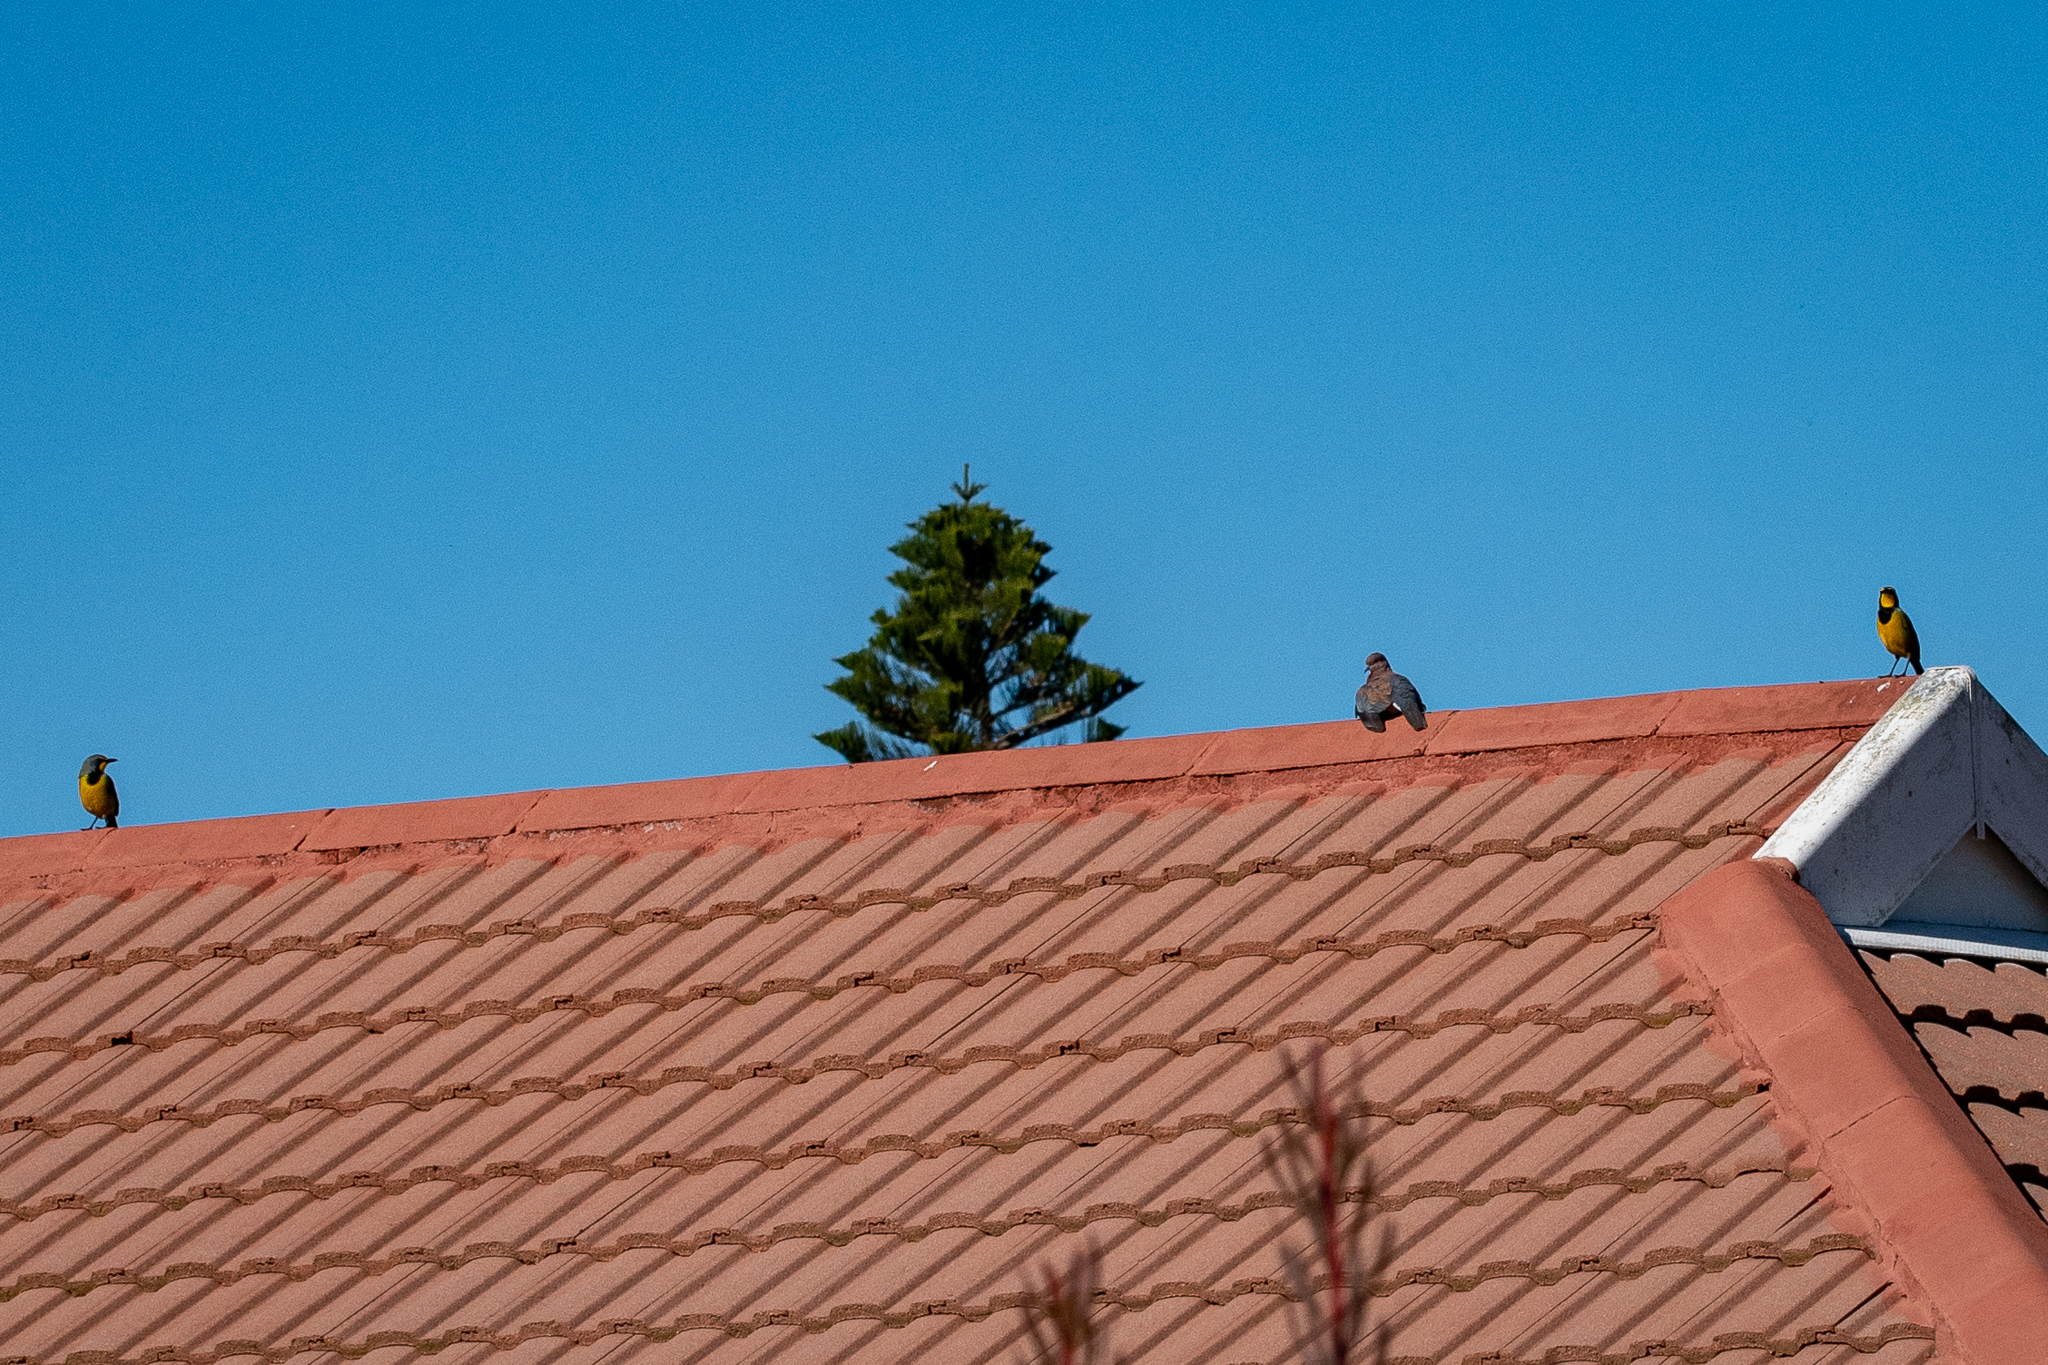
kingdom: Animalia
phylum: Chordata
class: Aves
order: Passeriformes
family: Malaconotidae
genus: Telophorus
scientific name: Telophorus zeylonus
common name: Bokmakierie
